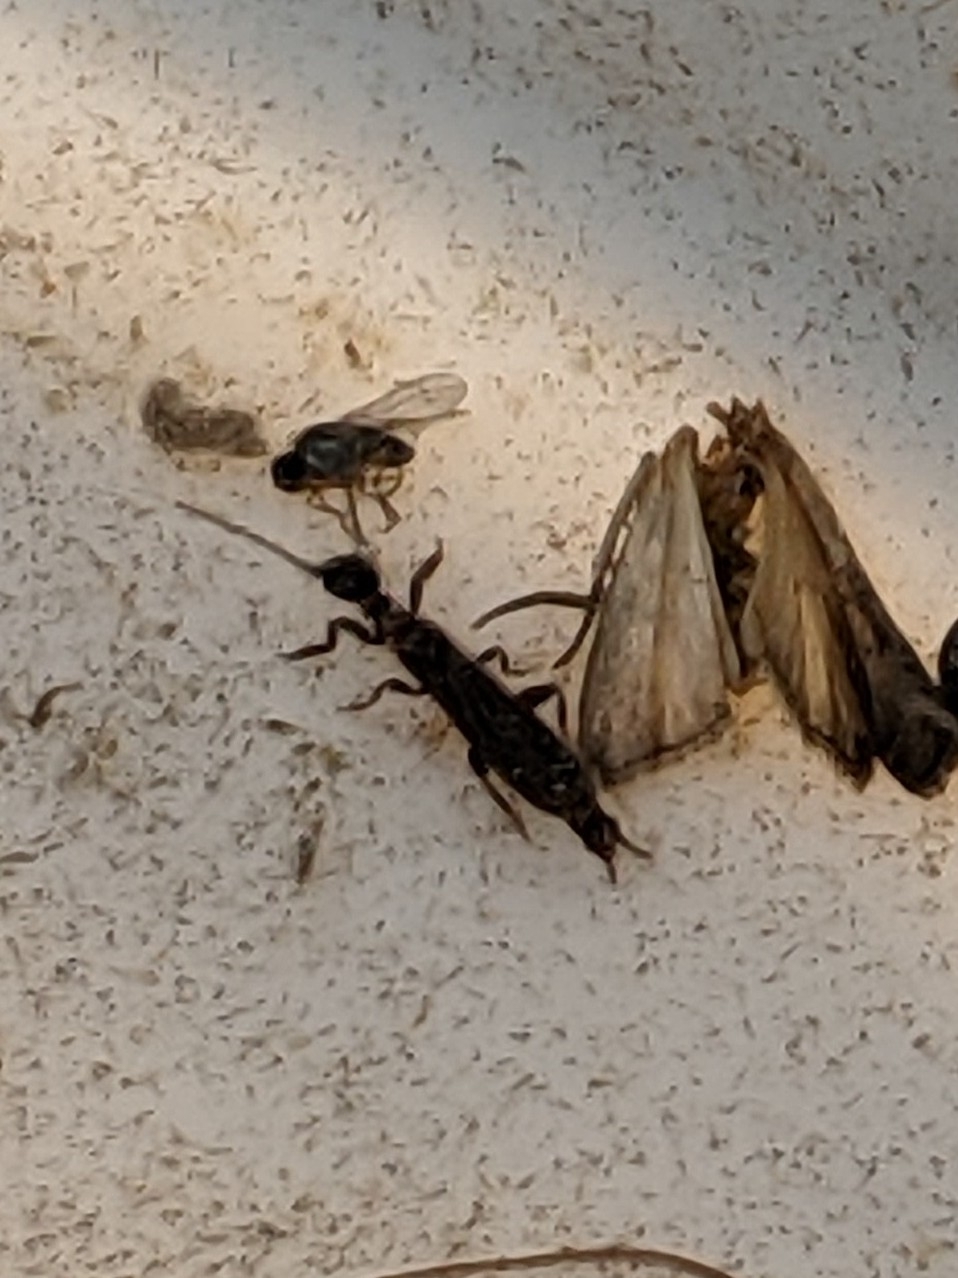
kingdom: Animalia
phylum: Arthropoda
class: Insecta
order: Embioptera
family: Oligotomidae
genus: Oligotoma
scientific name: Oligotoma nigra
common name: Black webspinner
